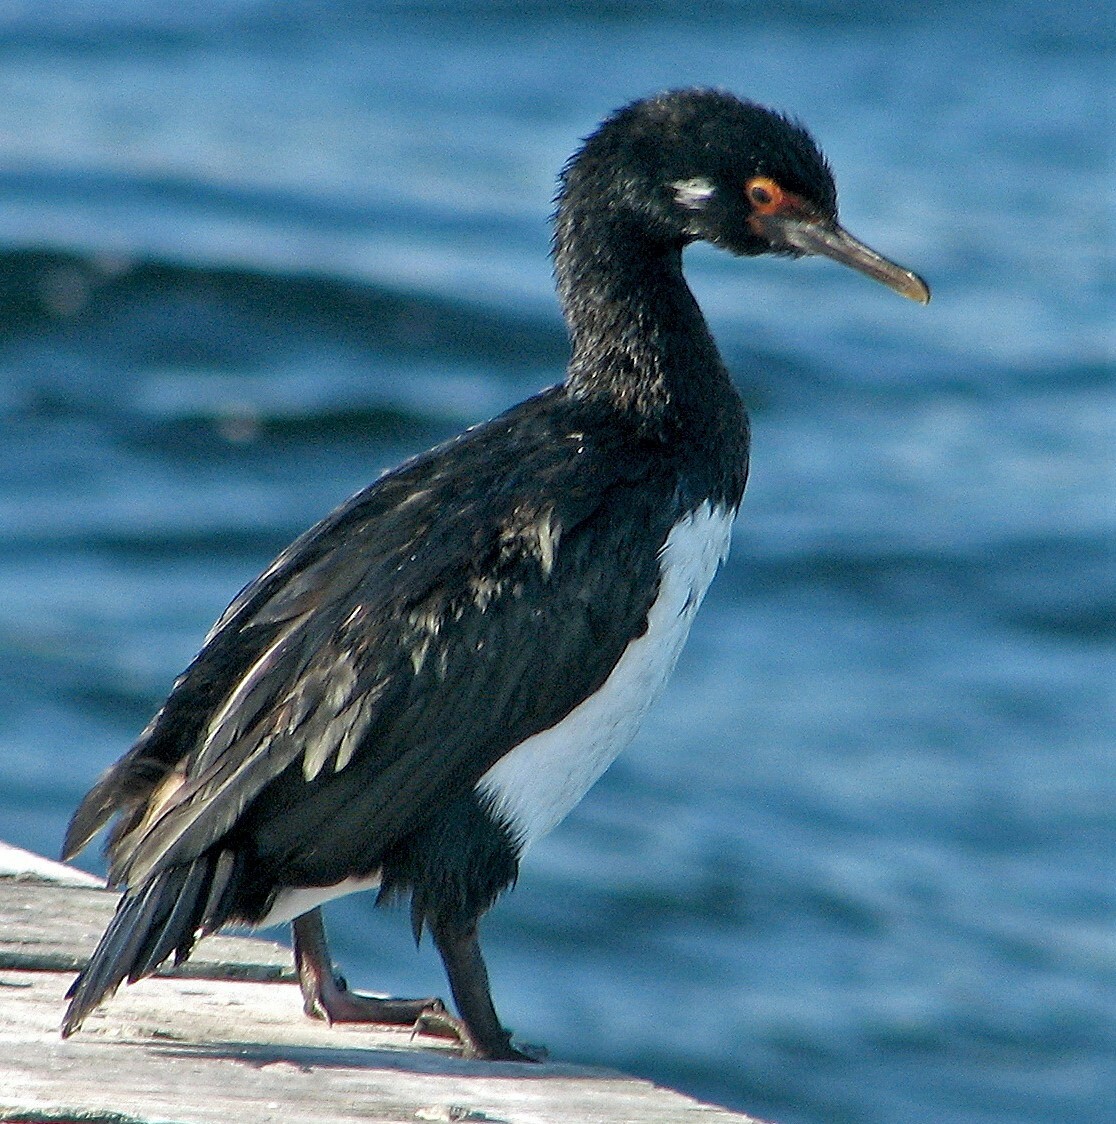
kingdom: Animalia
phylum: Chordata
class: Aves
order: Suliformes
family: Phalacrocoracidae
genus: Phalacrocorax
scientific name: Phalacrocorax magellanicus
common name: Rock shag
